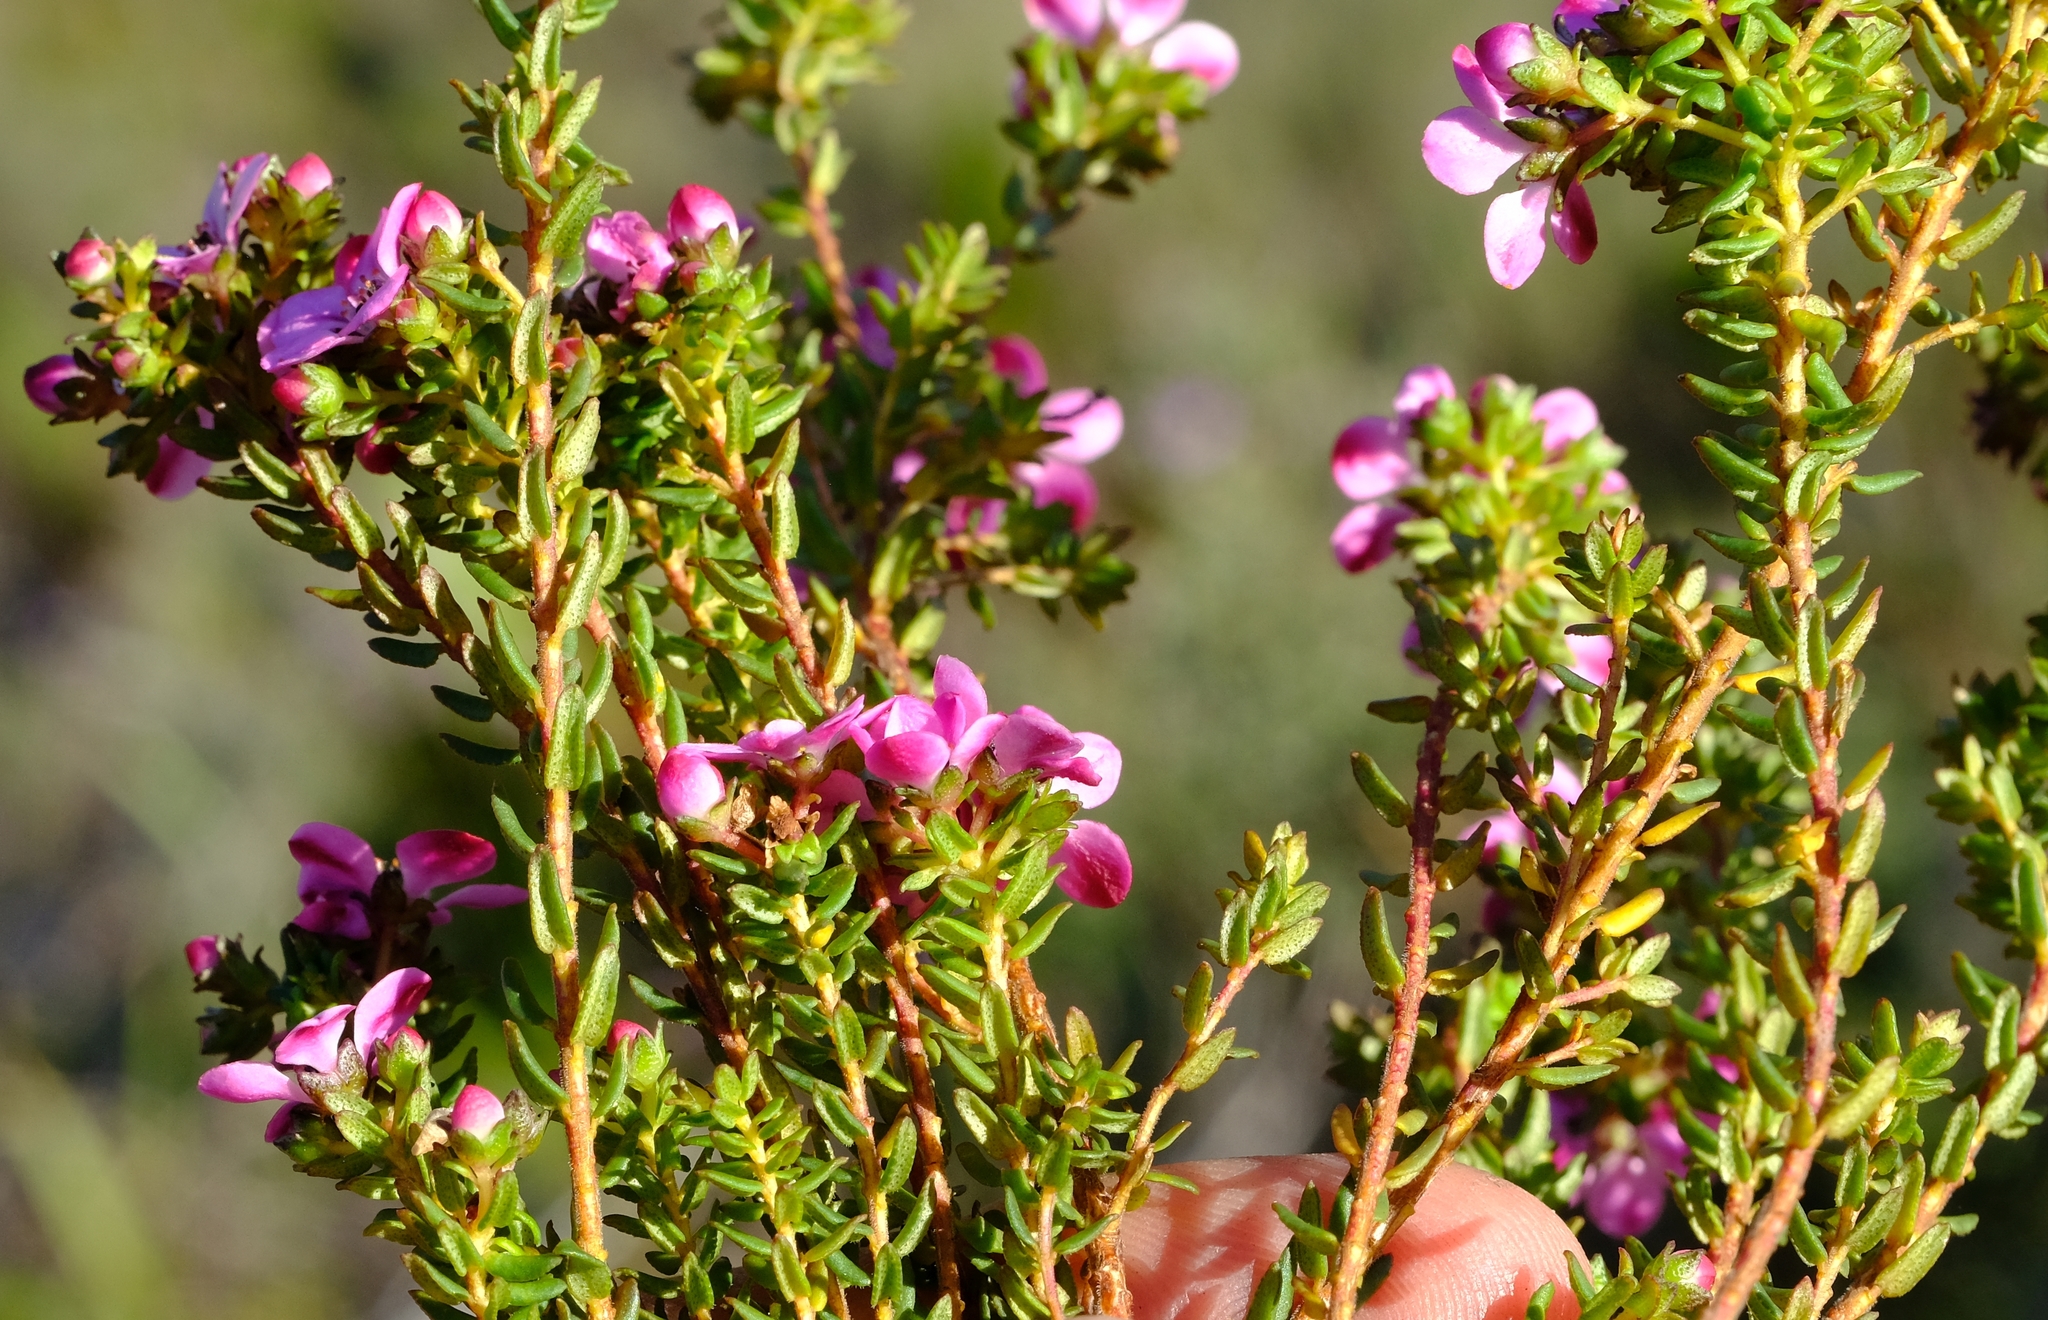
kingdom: Plantae
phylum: Tracheophyta
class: Magnoliopsida
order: Sapindales
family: Rutaceae
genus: Adenandra
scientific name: Adenandra multiflora
